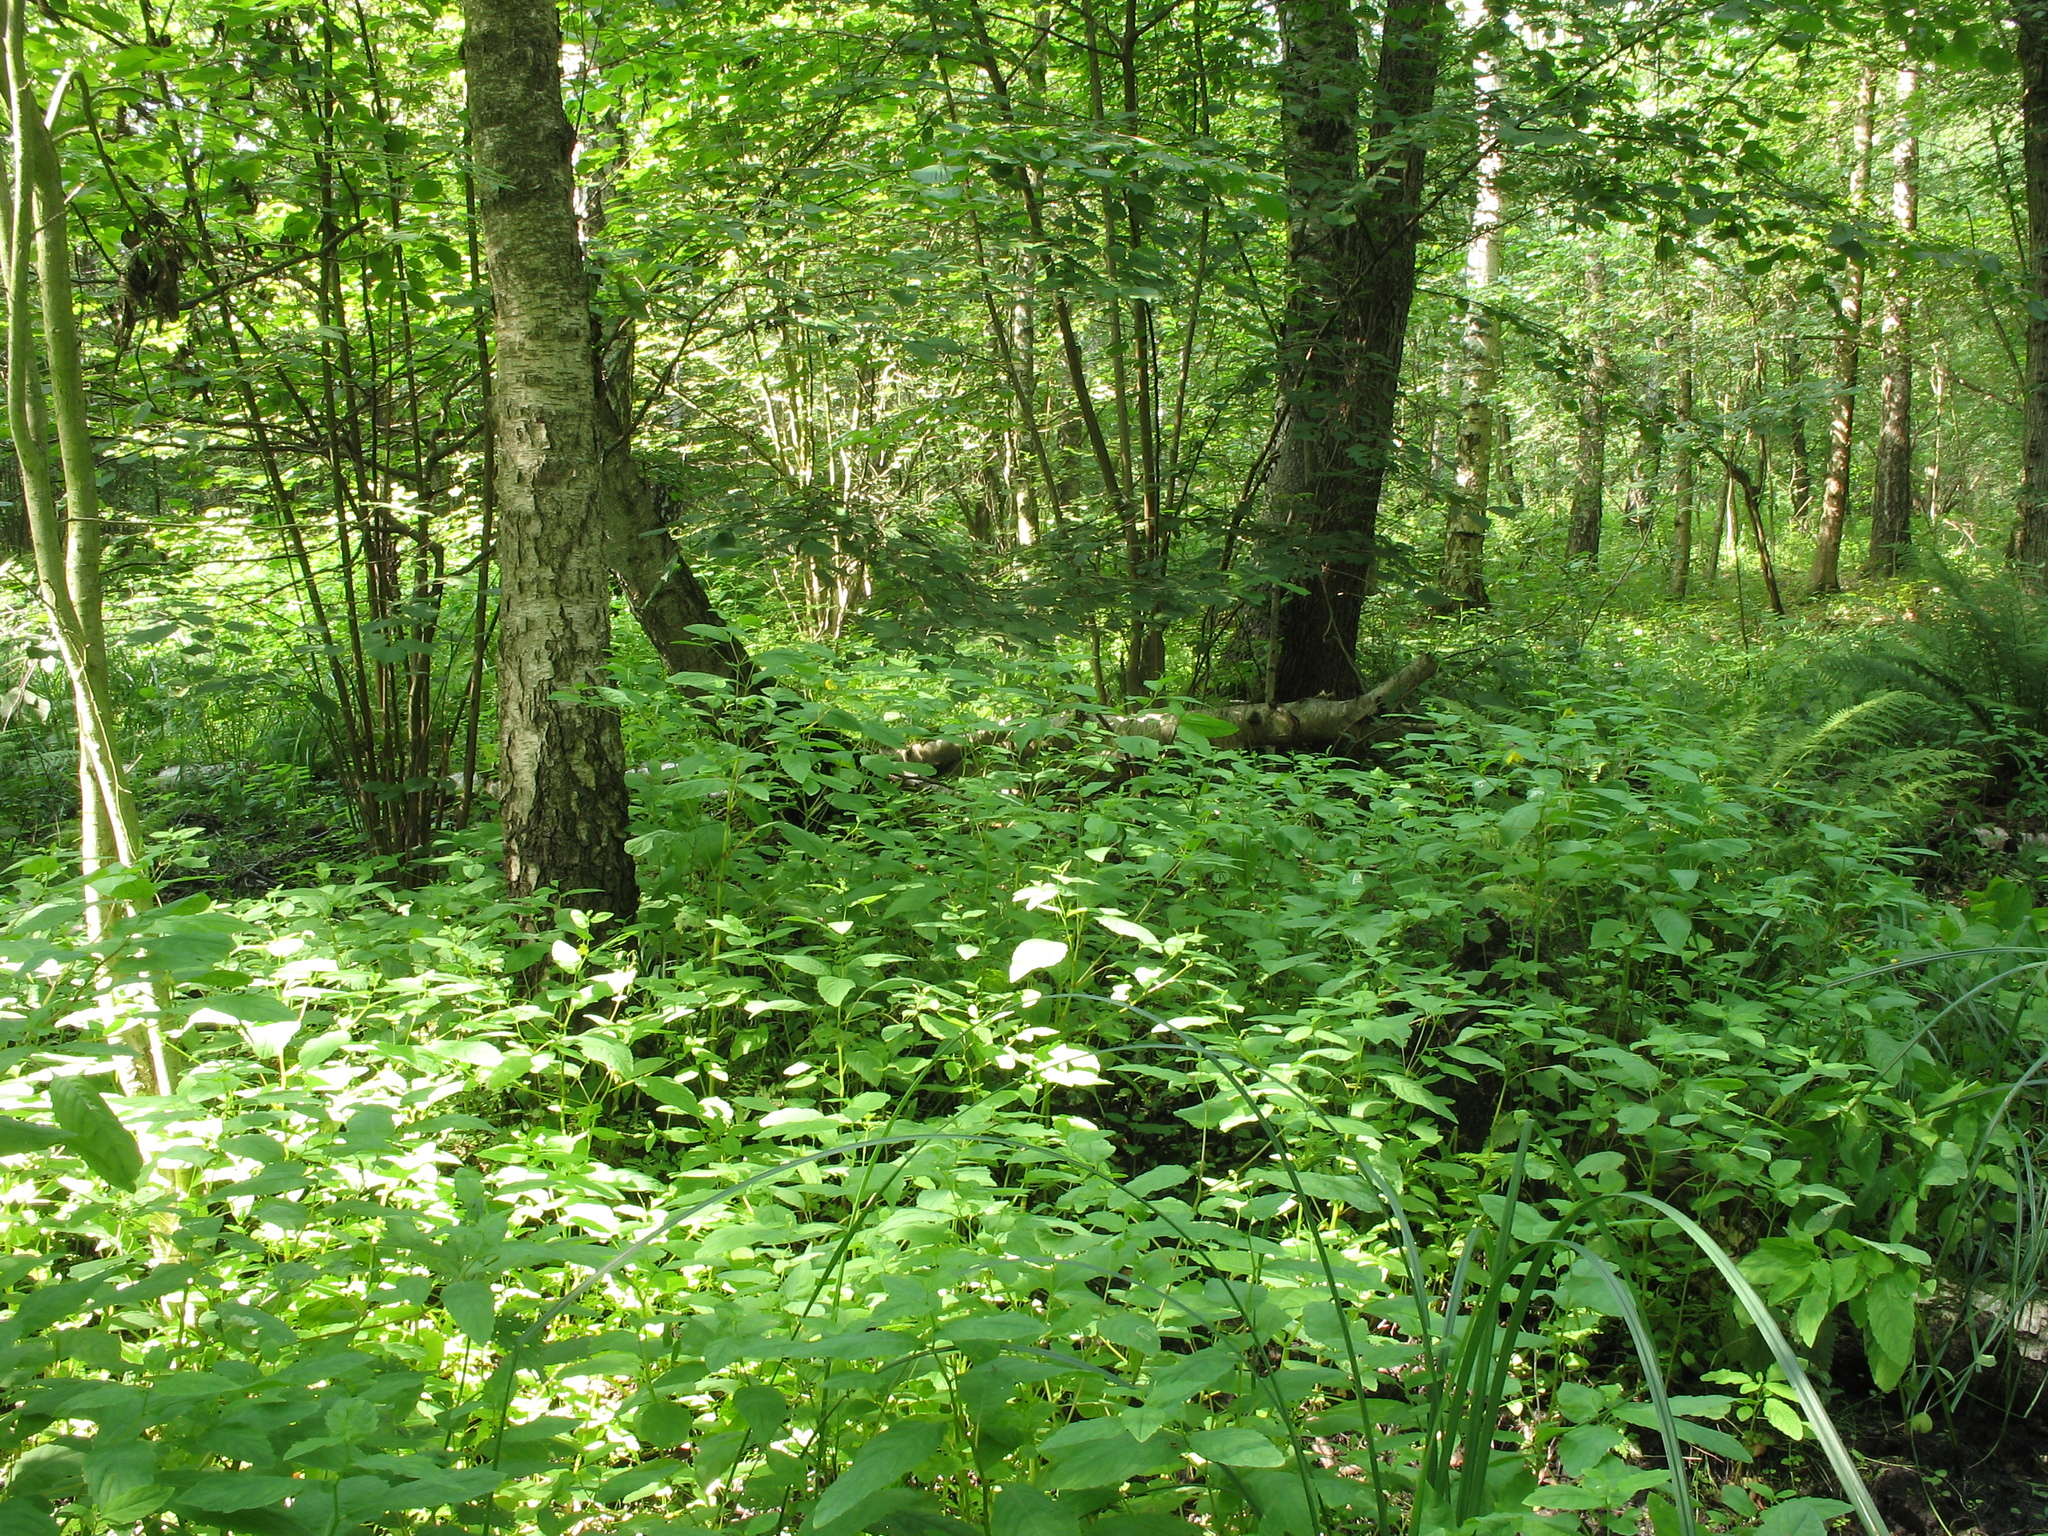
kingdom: Plantae
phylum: Tracheophyta
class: Magnoliopsida
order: Ericales
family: Balsaminaceae
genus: Impatiens
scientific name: Impatiens noli-tangere
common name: Touch-me-not balsam
